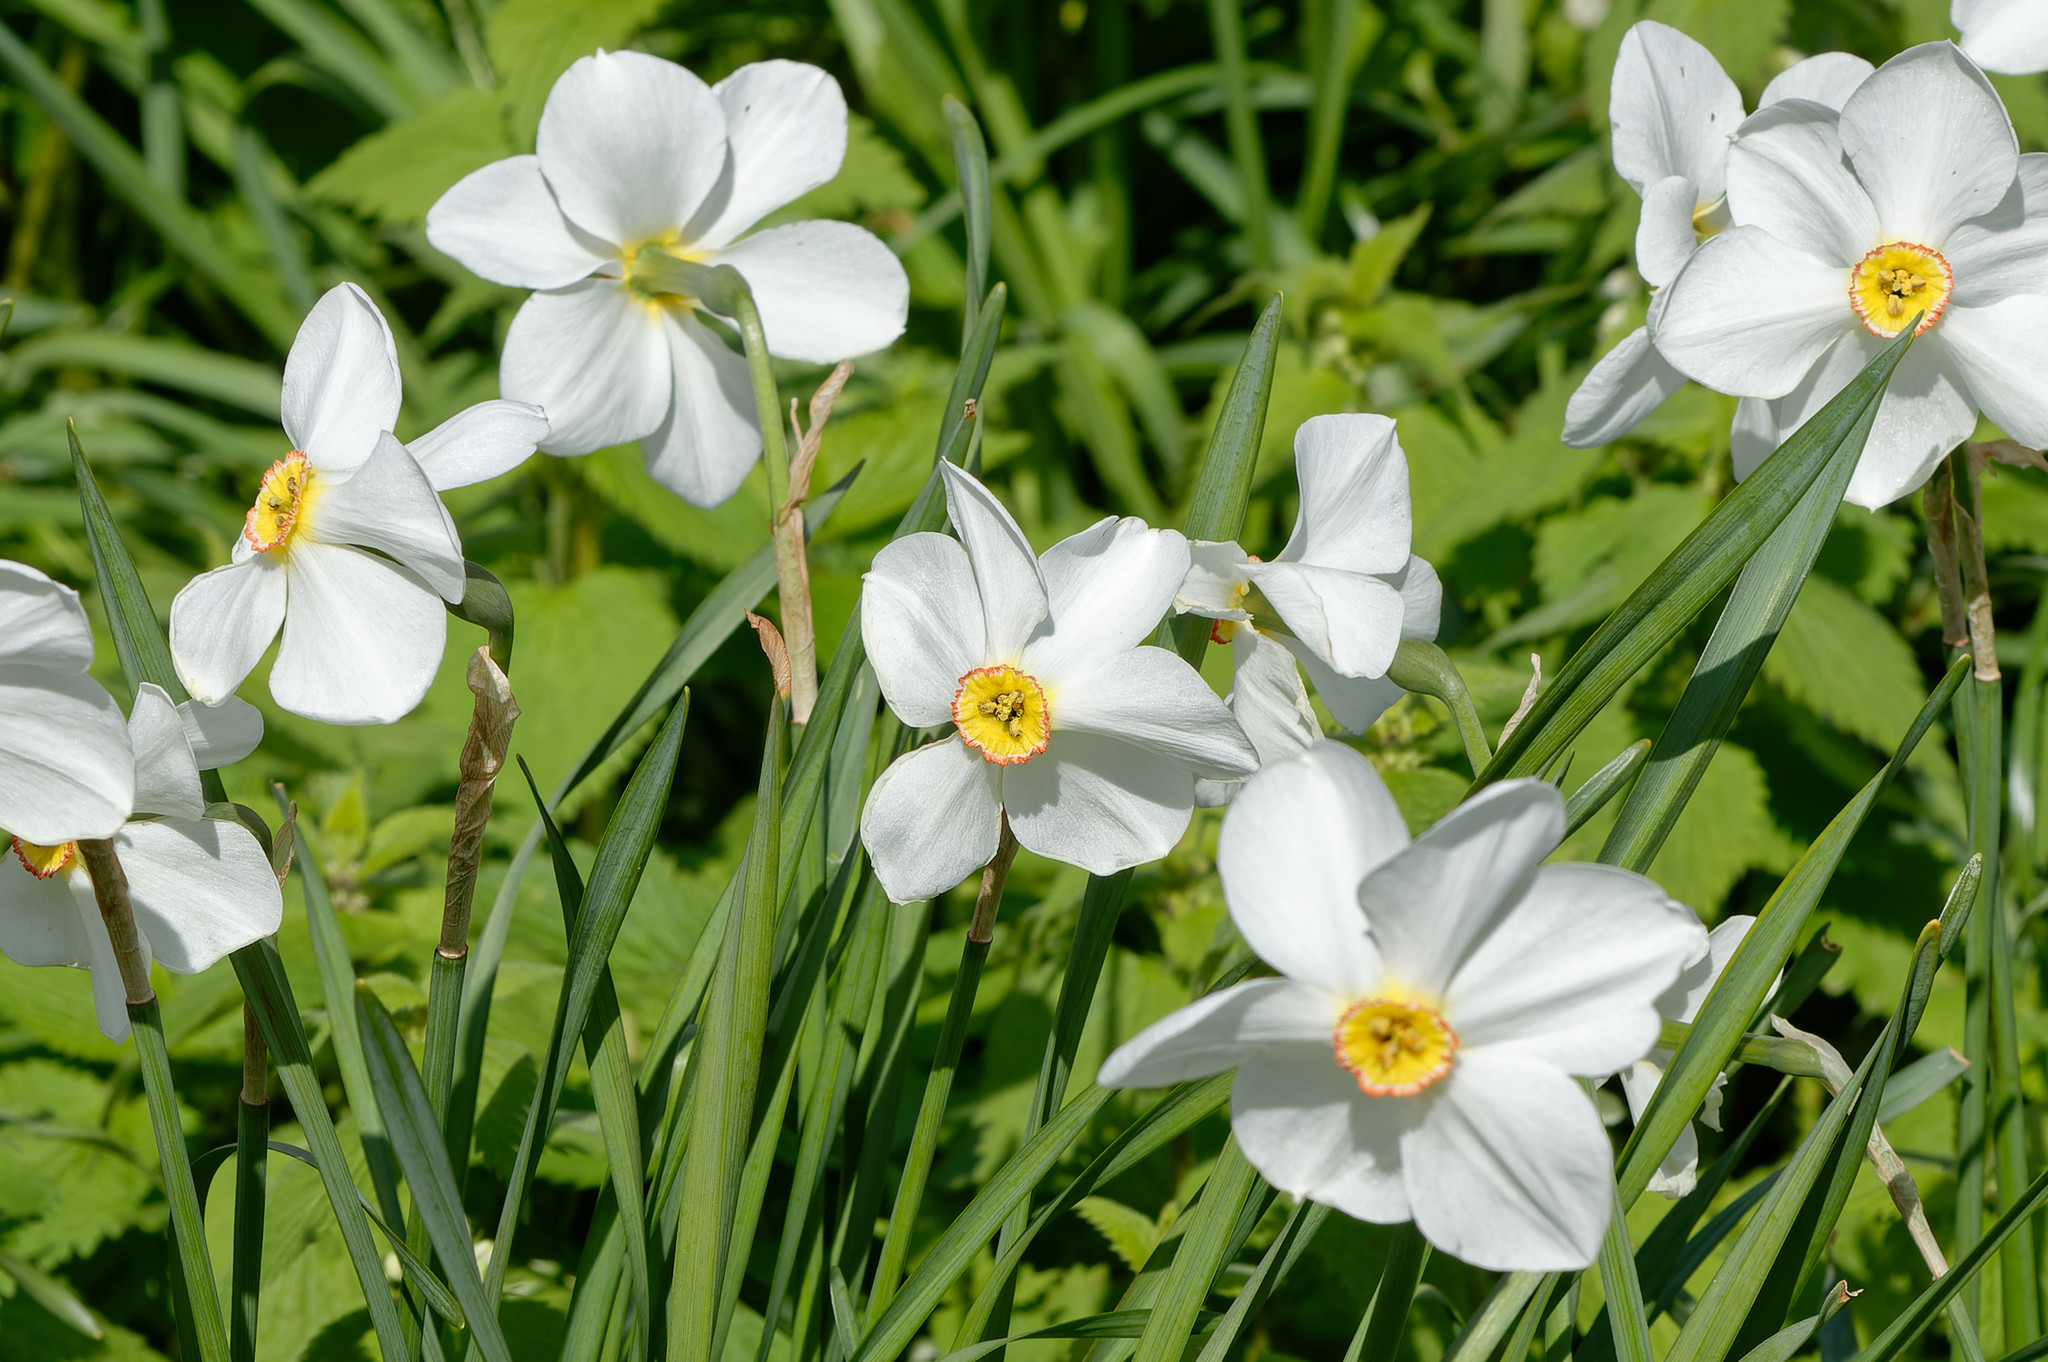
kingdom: Plantae
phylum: Tracheophyta
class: Liliopsida
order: Asparagales
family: Amaryllidaceae
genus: Narcissus
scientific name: Narcissus poeticus
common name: Pheasant's-eye daffodil
